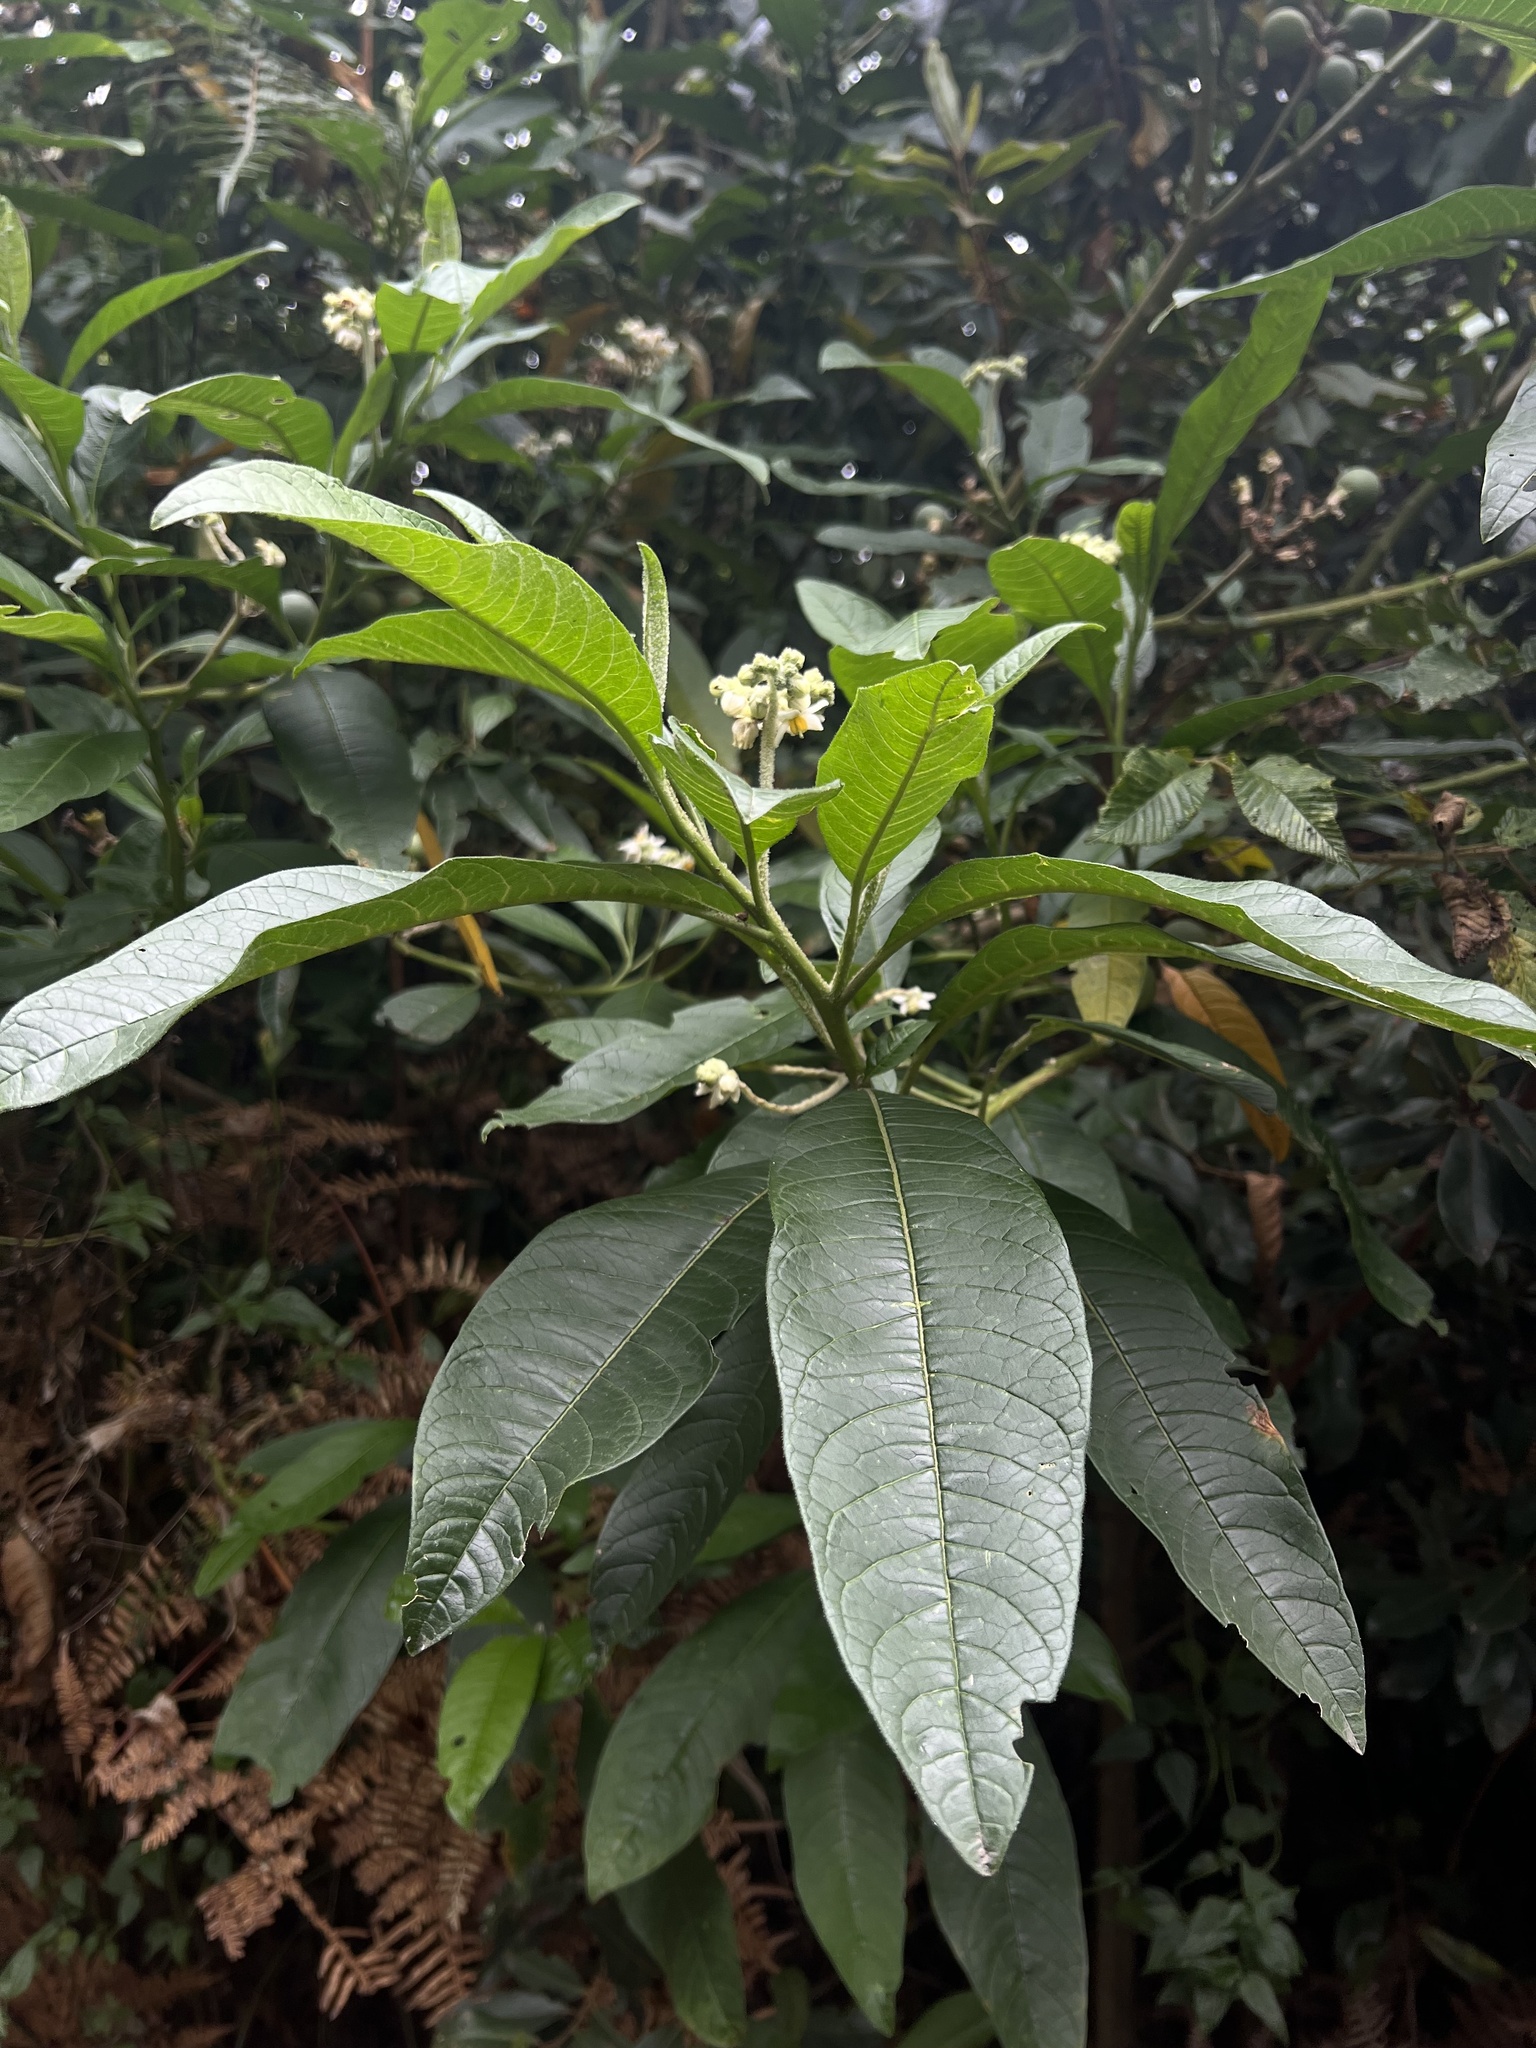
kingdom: Plantae
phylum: Tracheophyta
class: Magnoliopsida
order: Solanales
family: Solanaceae
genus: Solanum
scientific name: Solanum oblongifolium
